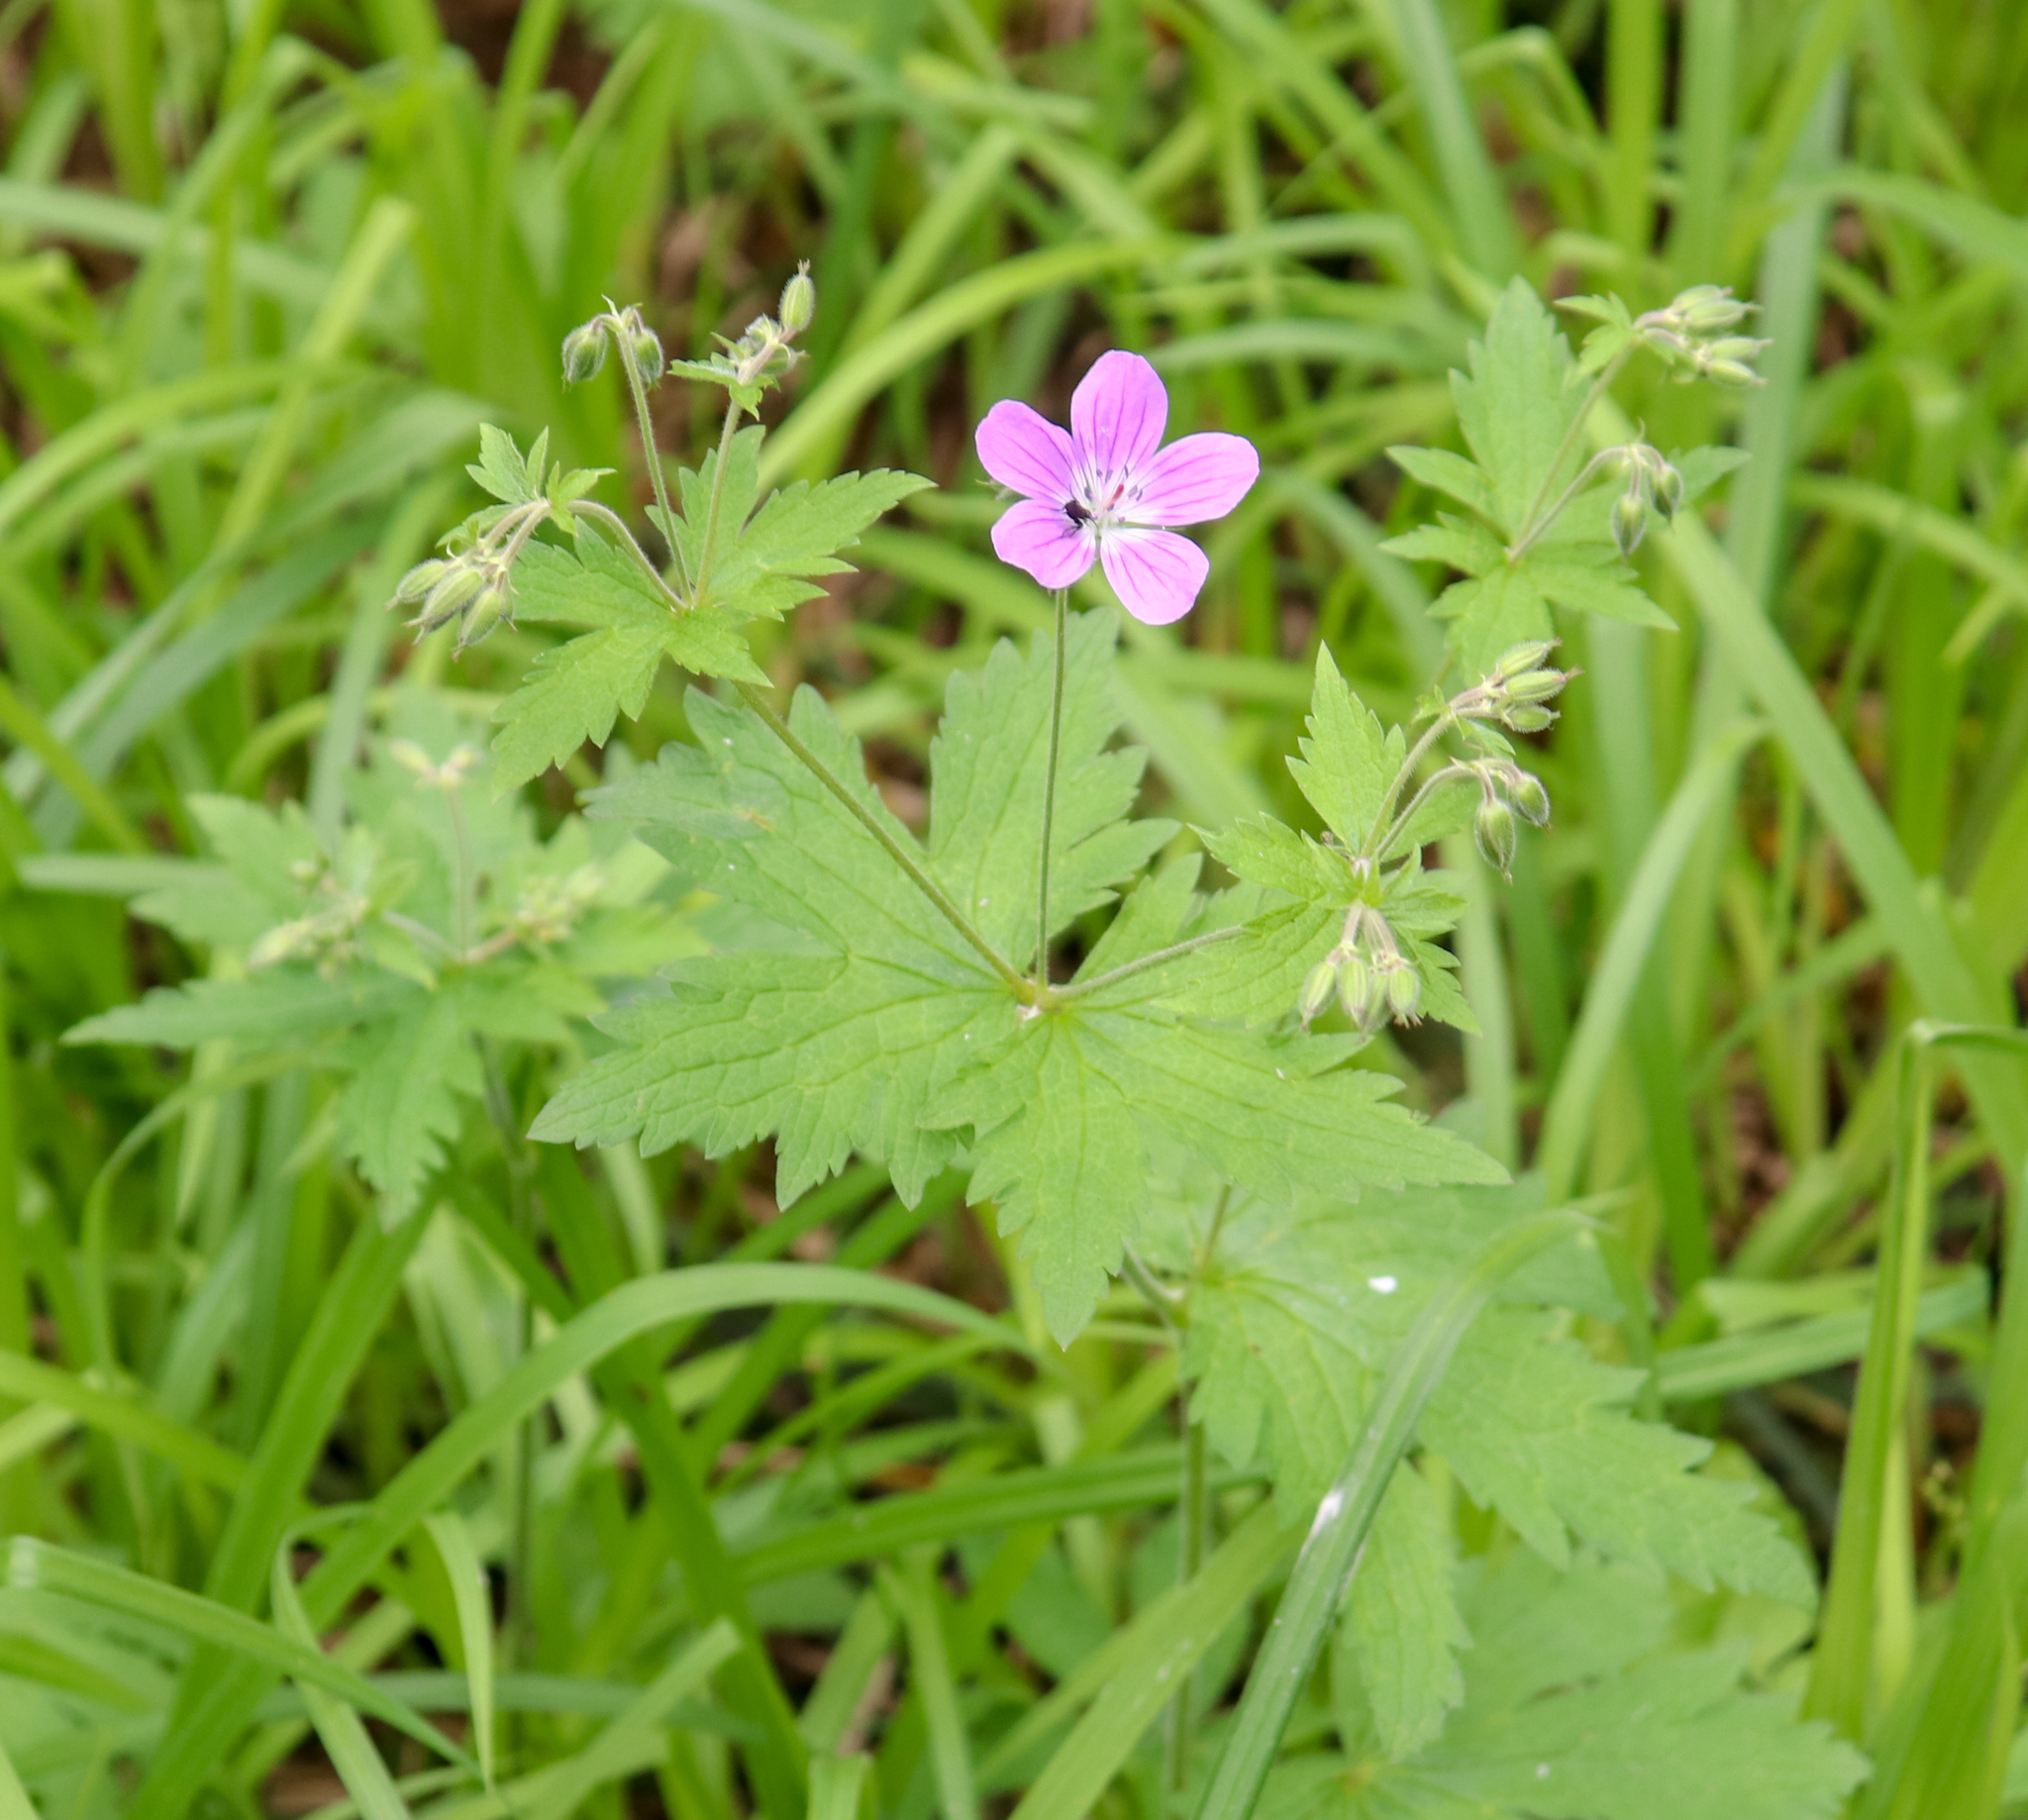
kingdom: Plantae
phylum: Tracheophyta
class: Magnoliopsida
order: Geraniales
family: Geraniaceae
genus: Geranium
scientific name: Geranium sylvaticum
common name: Wood crane's-bill
